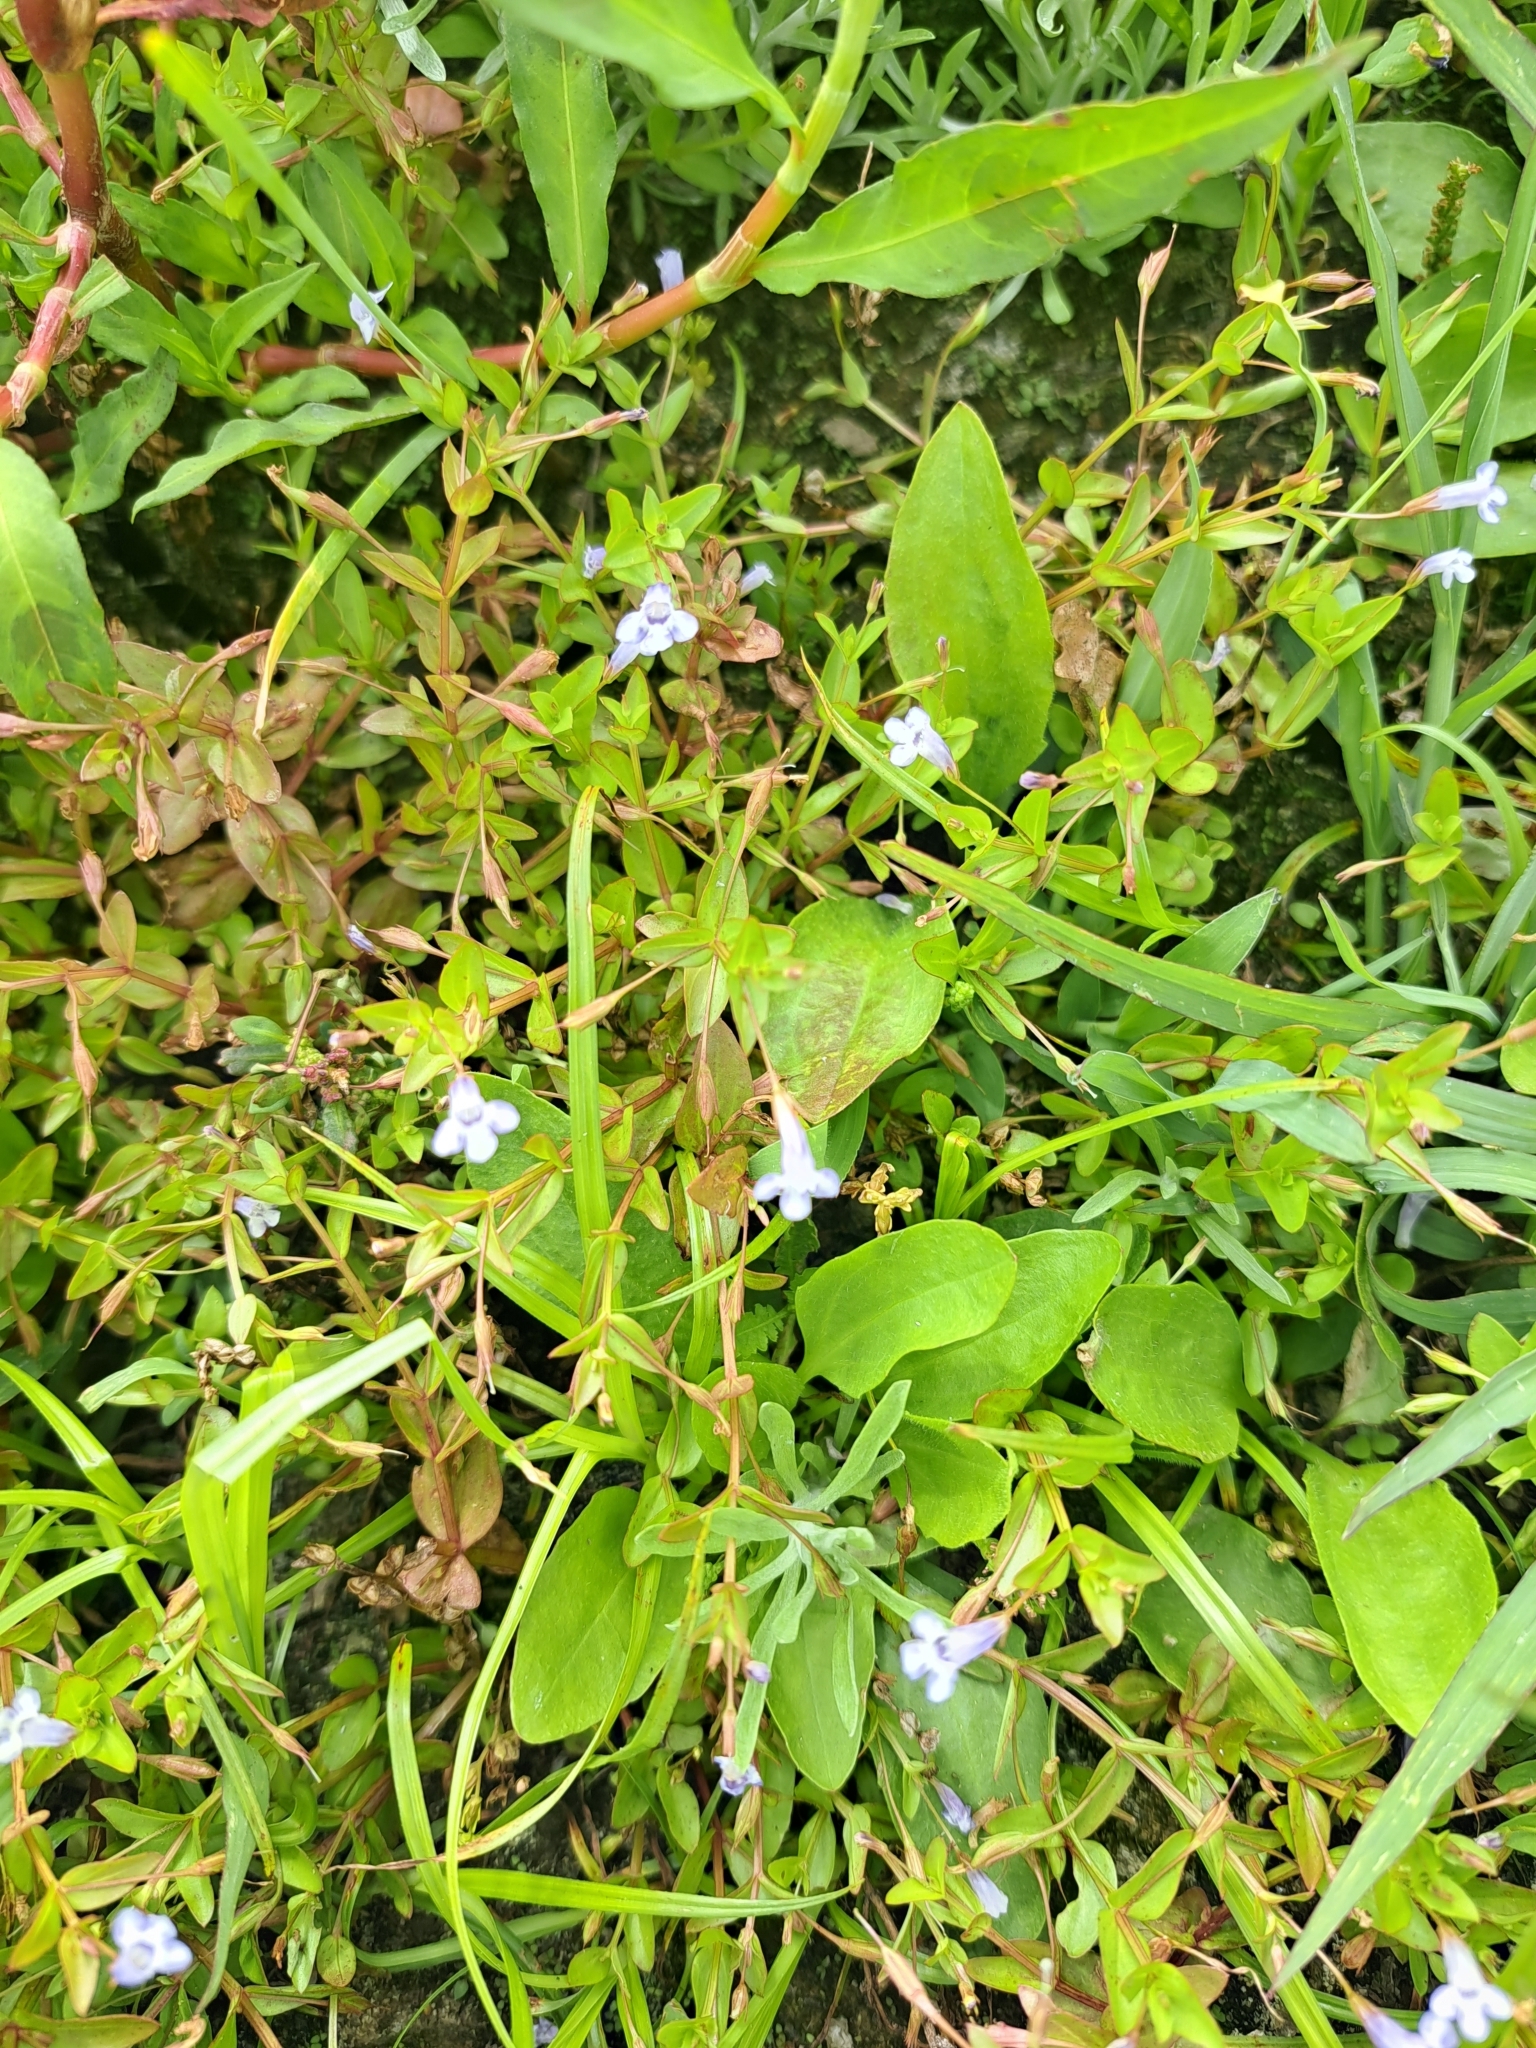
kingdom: Plantae
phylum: Tracheophyta
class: Magnoliopsida
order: Lamiales
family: Linderniaceae
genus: Lindernia
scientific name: Lindernia dubia
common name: Annual false pimpernel
